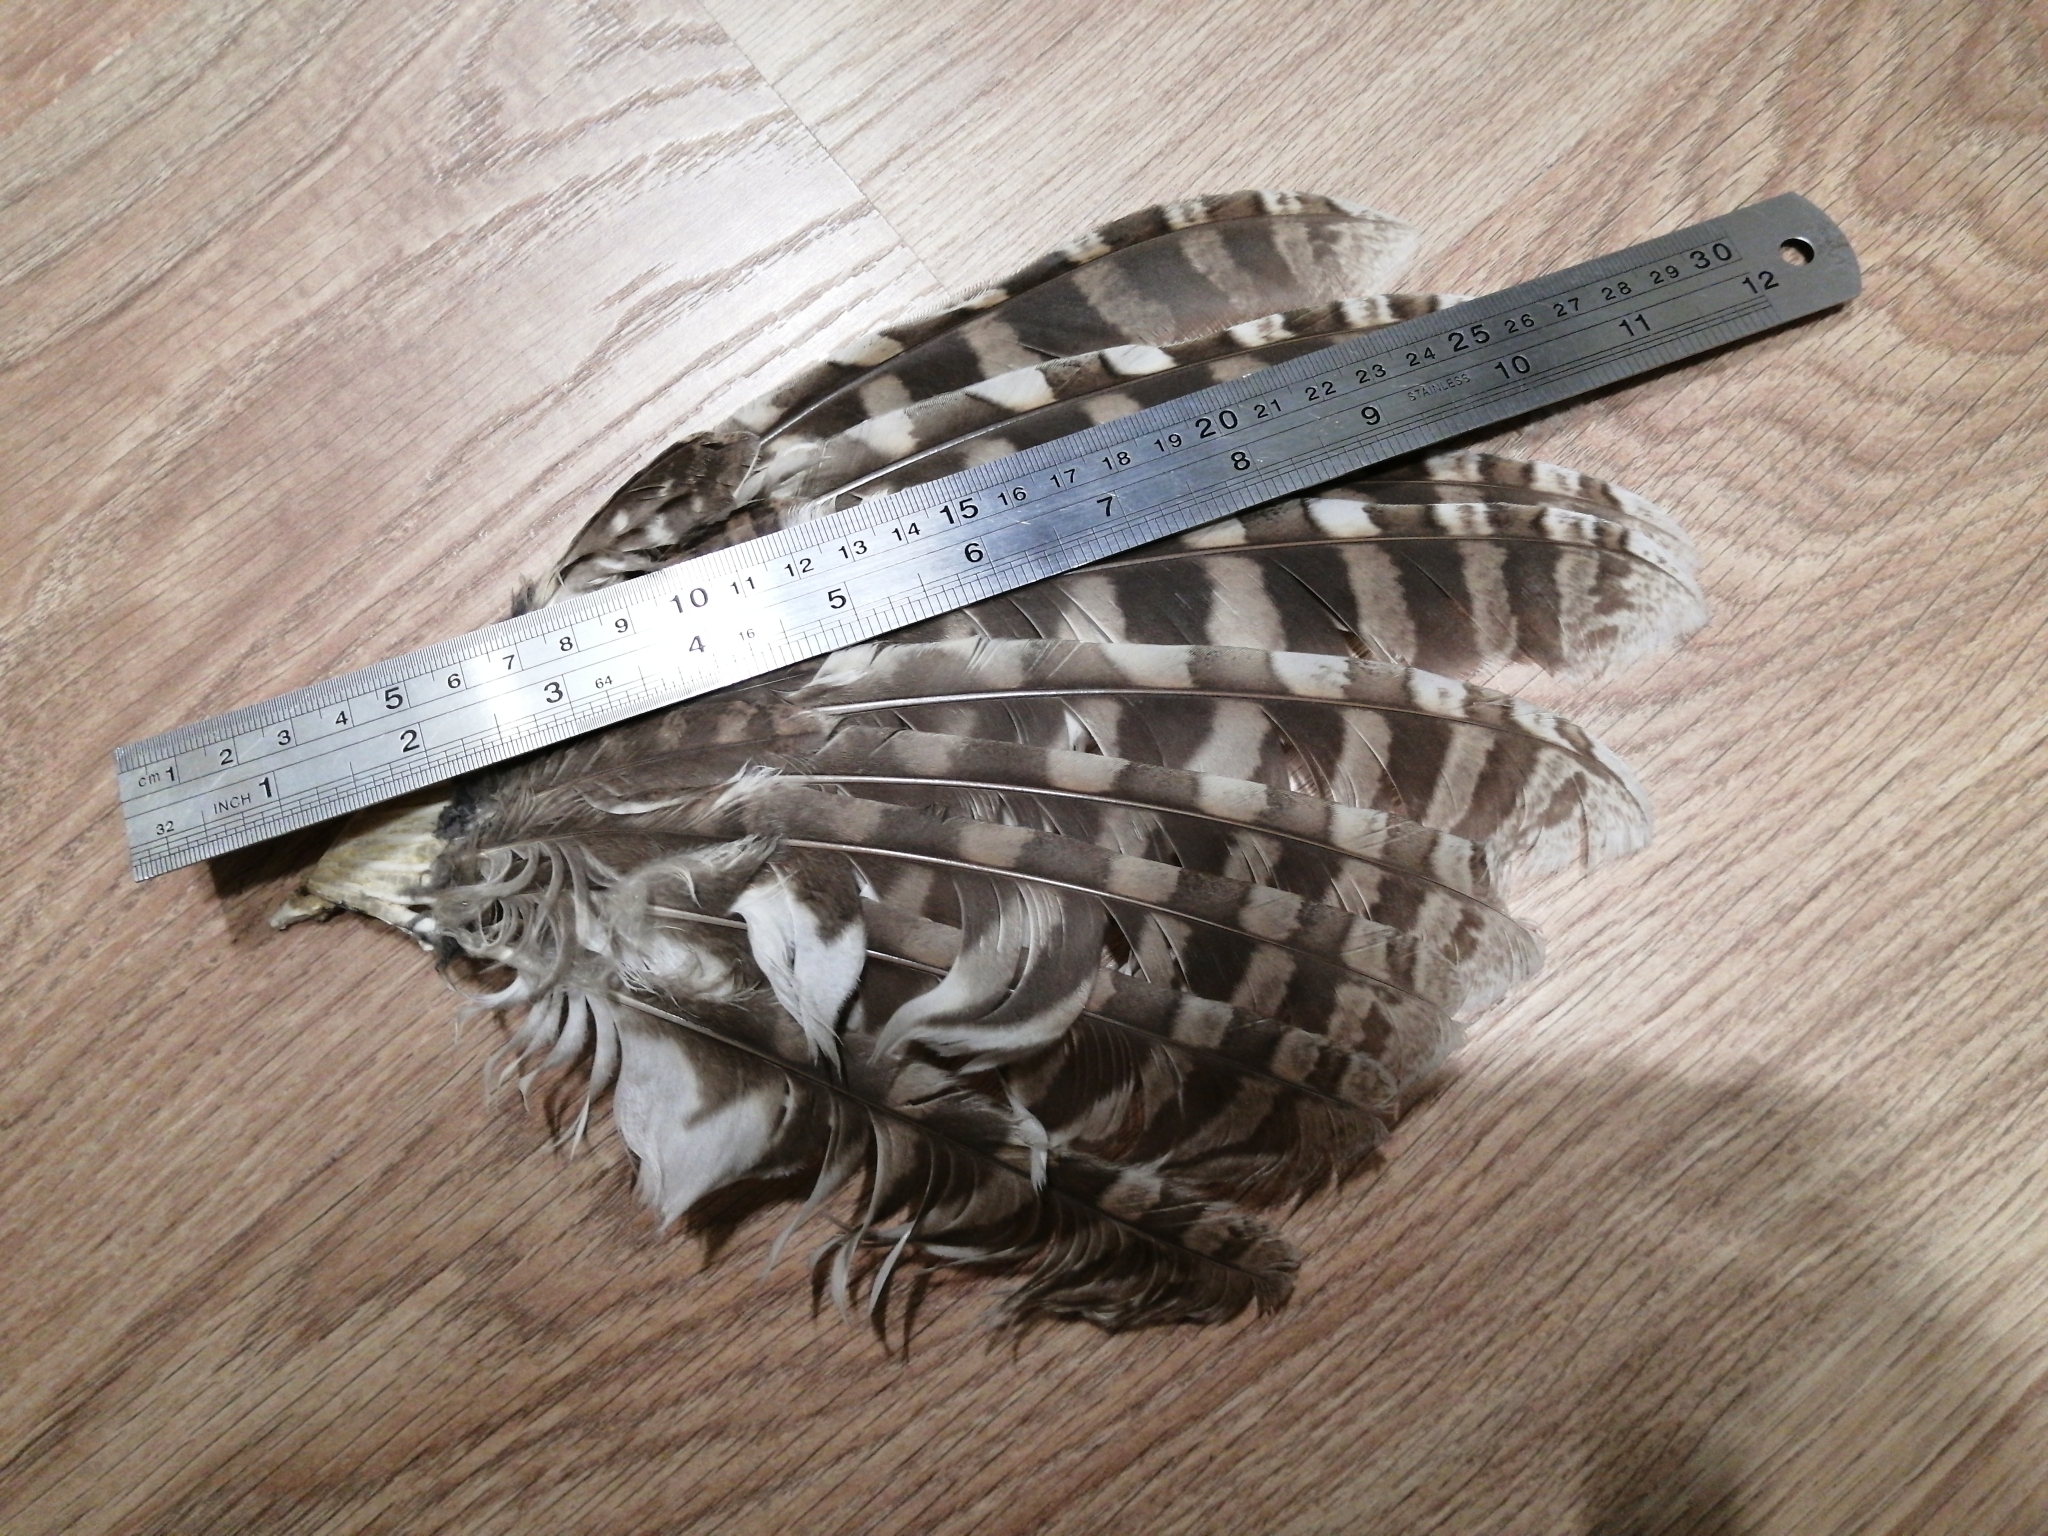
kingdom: Animalia
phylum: Chordata
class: Aves
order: Strigiformes
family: Strigidae
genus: Strix
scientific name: Strix aluco
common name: Tawny owl
